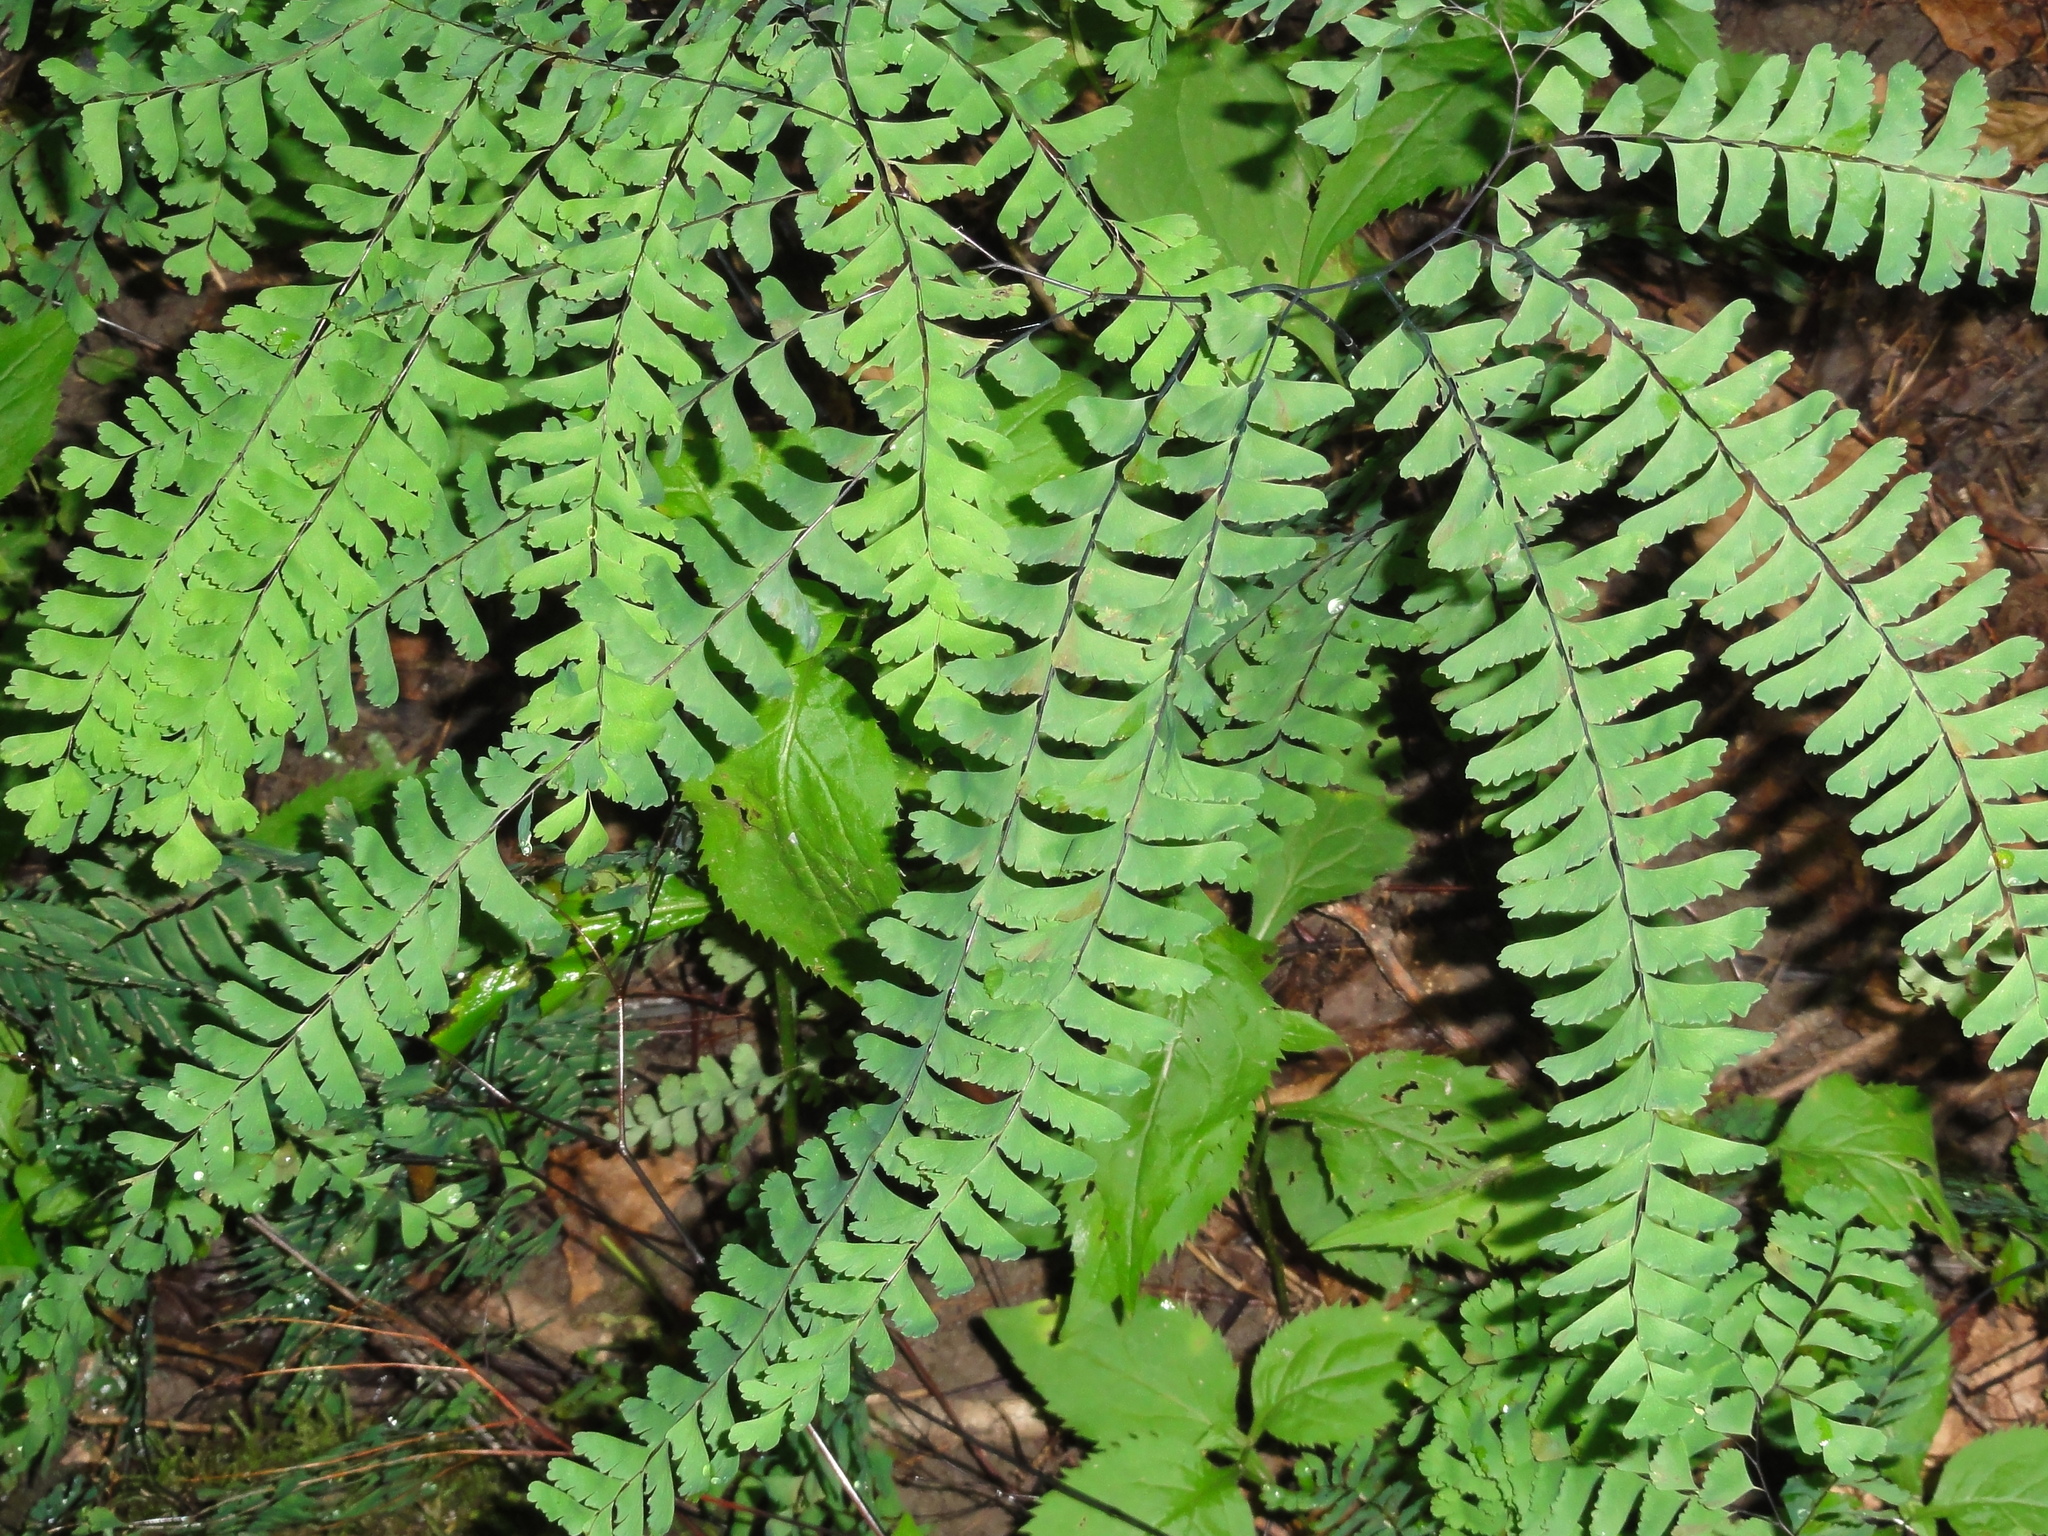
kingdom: Plantae
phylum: Tracheophyta
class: Polypodiopsida
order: Polypodiales
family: Pteridaceae
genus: Adiantum
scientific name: Adiantum pedatum
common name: Five-finger fern
